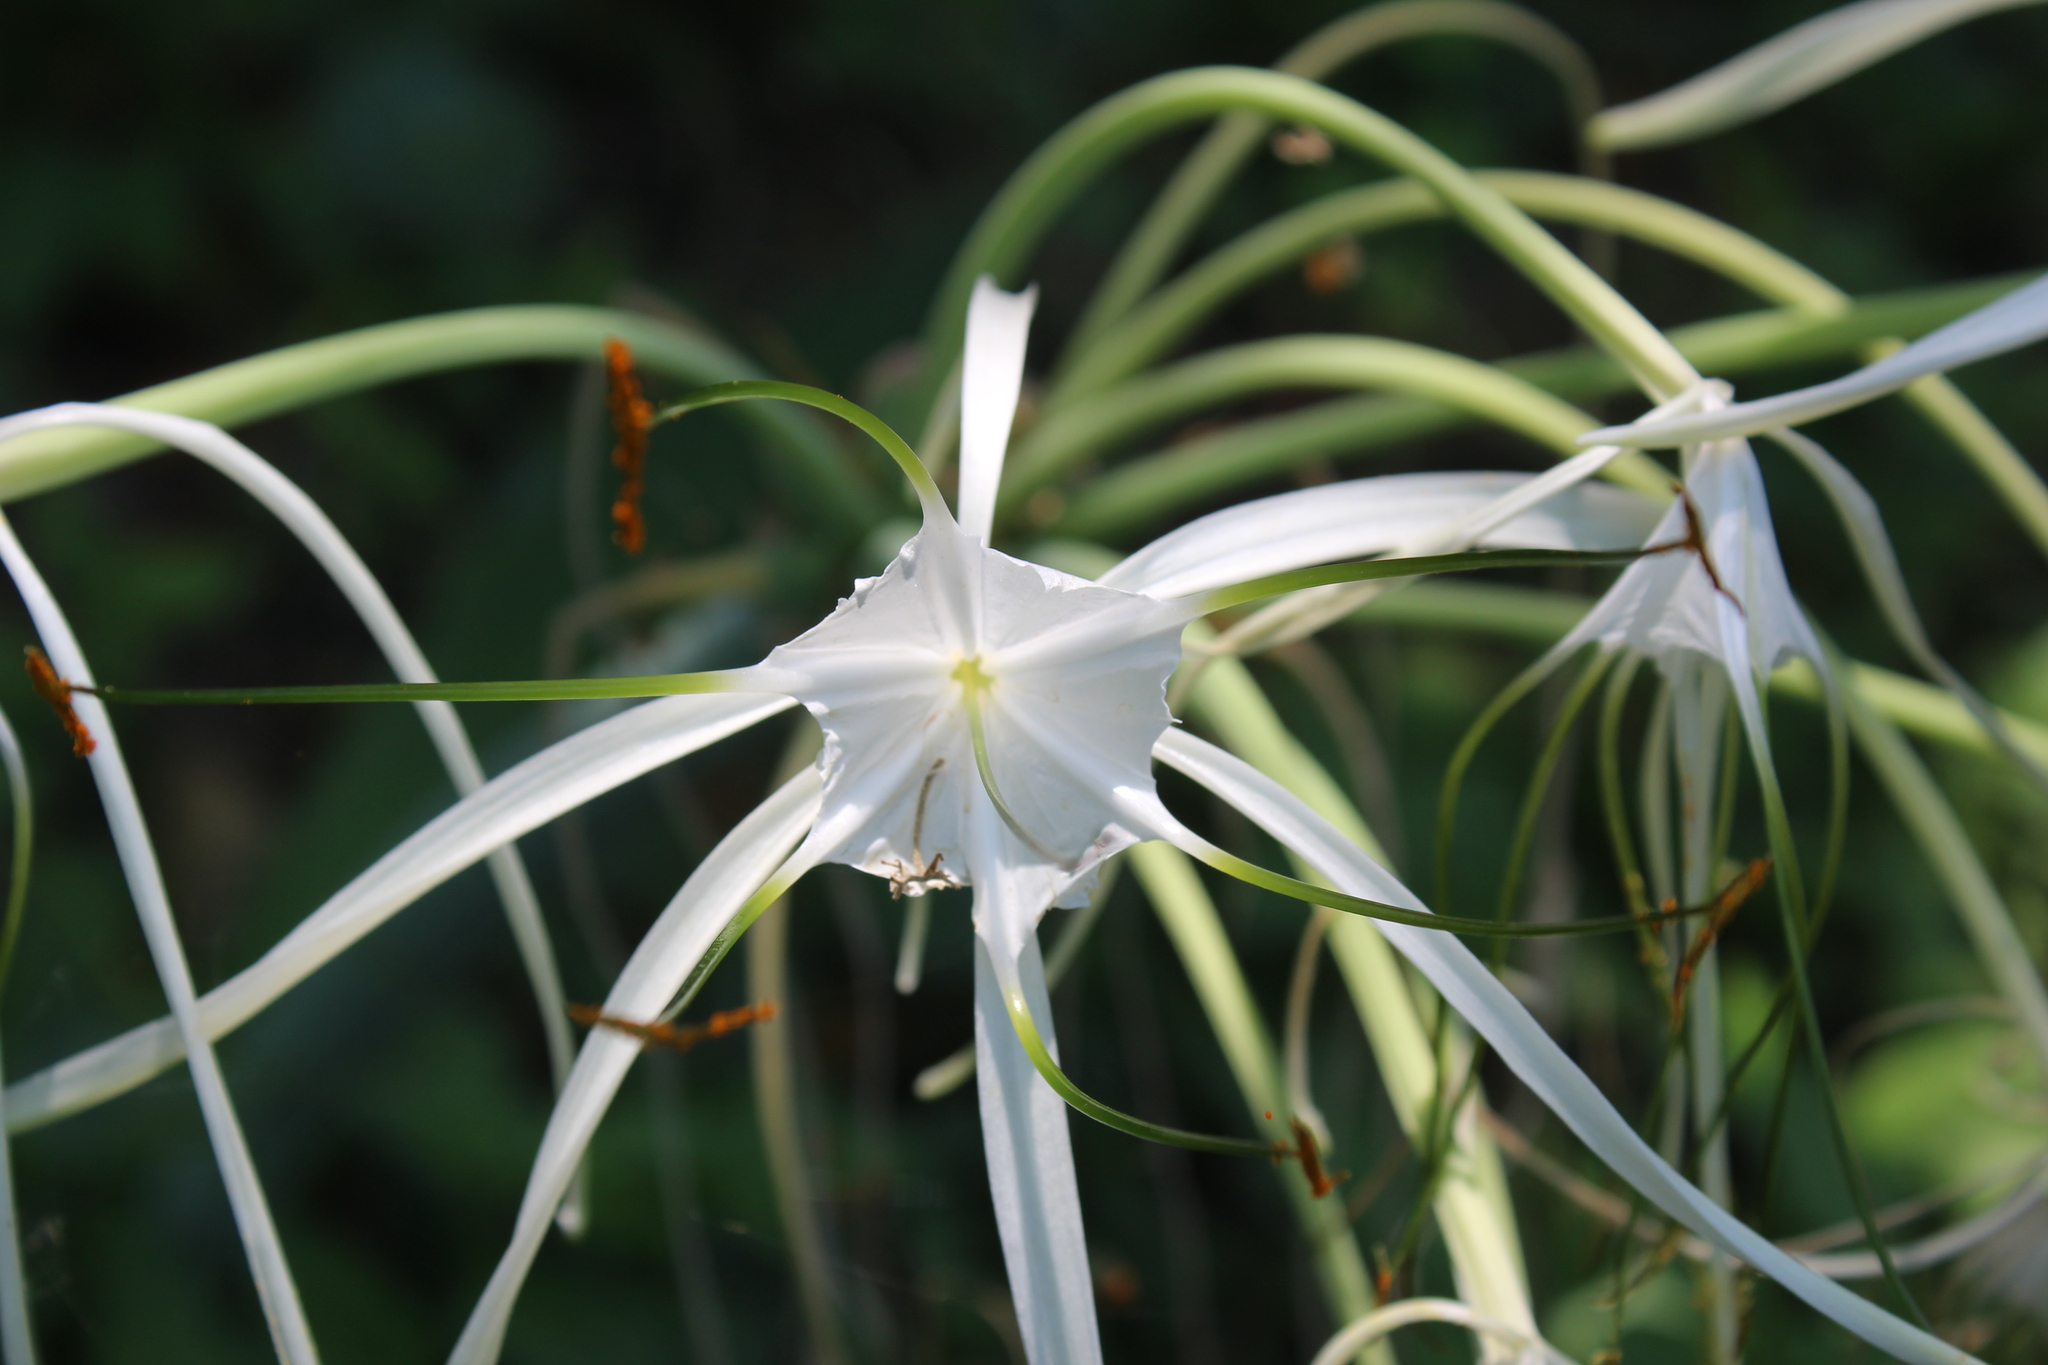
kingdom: Plantae
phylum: Tracheophyta
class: Liliopsida
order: Asparagales
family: Amaryllidaceae
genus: Hymenocallis
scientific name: Hymenocallis littoralis
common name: Beach spiderlily
